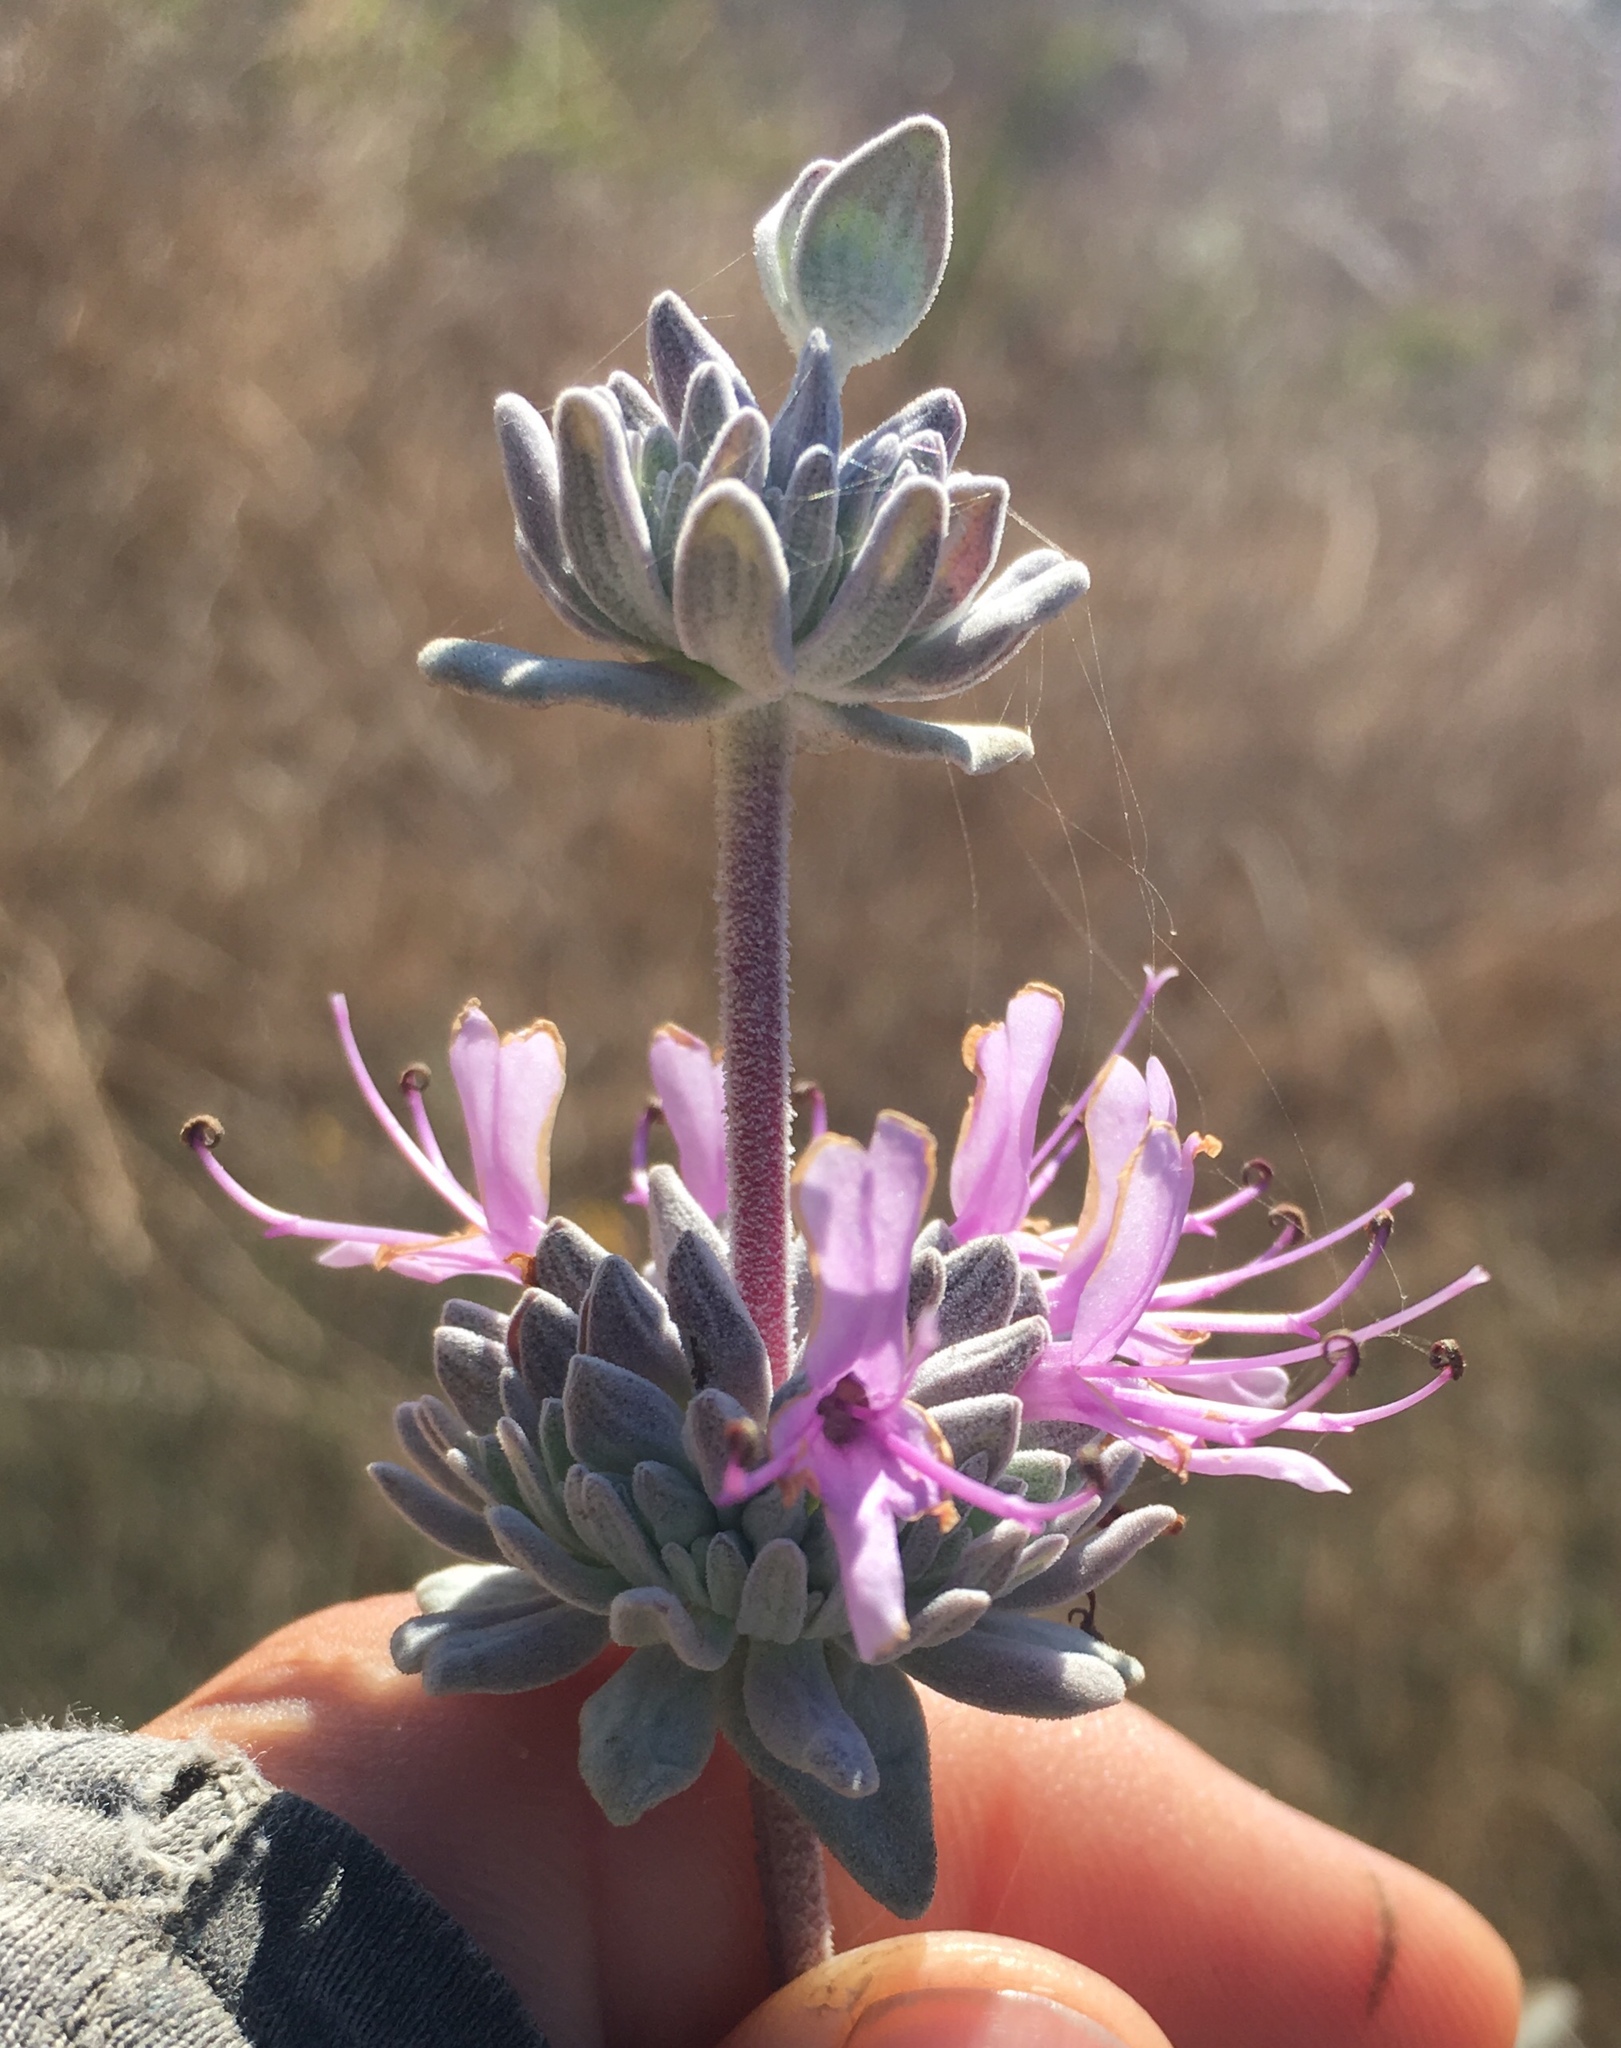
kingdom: Plantae
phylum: Tracheophyta
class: Magnoliopsida
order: Lamiales
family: Lamiaceae
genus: Salvia
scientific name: Salvia leucophylla
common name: Purple sage
